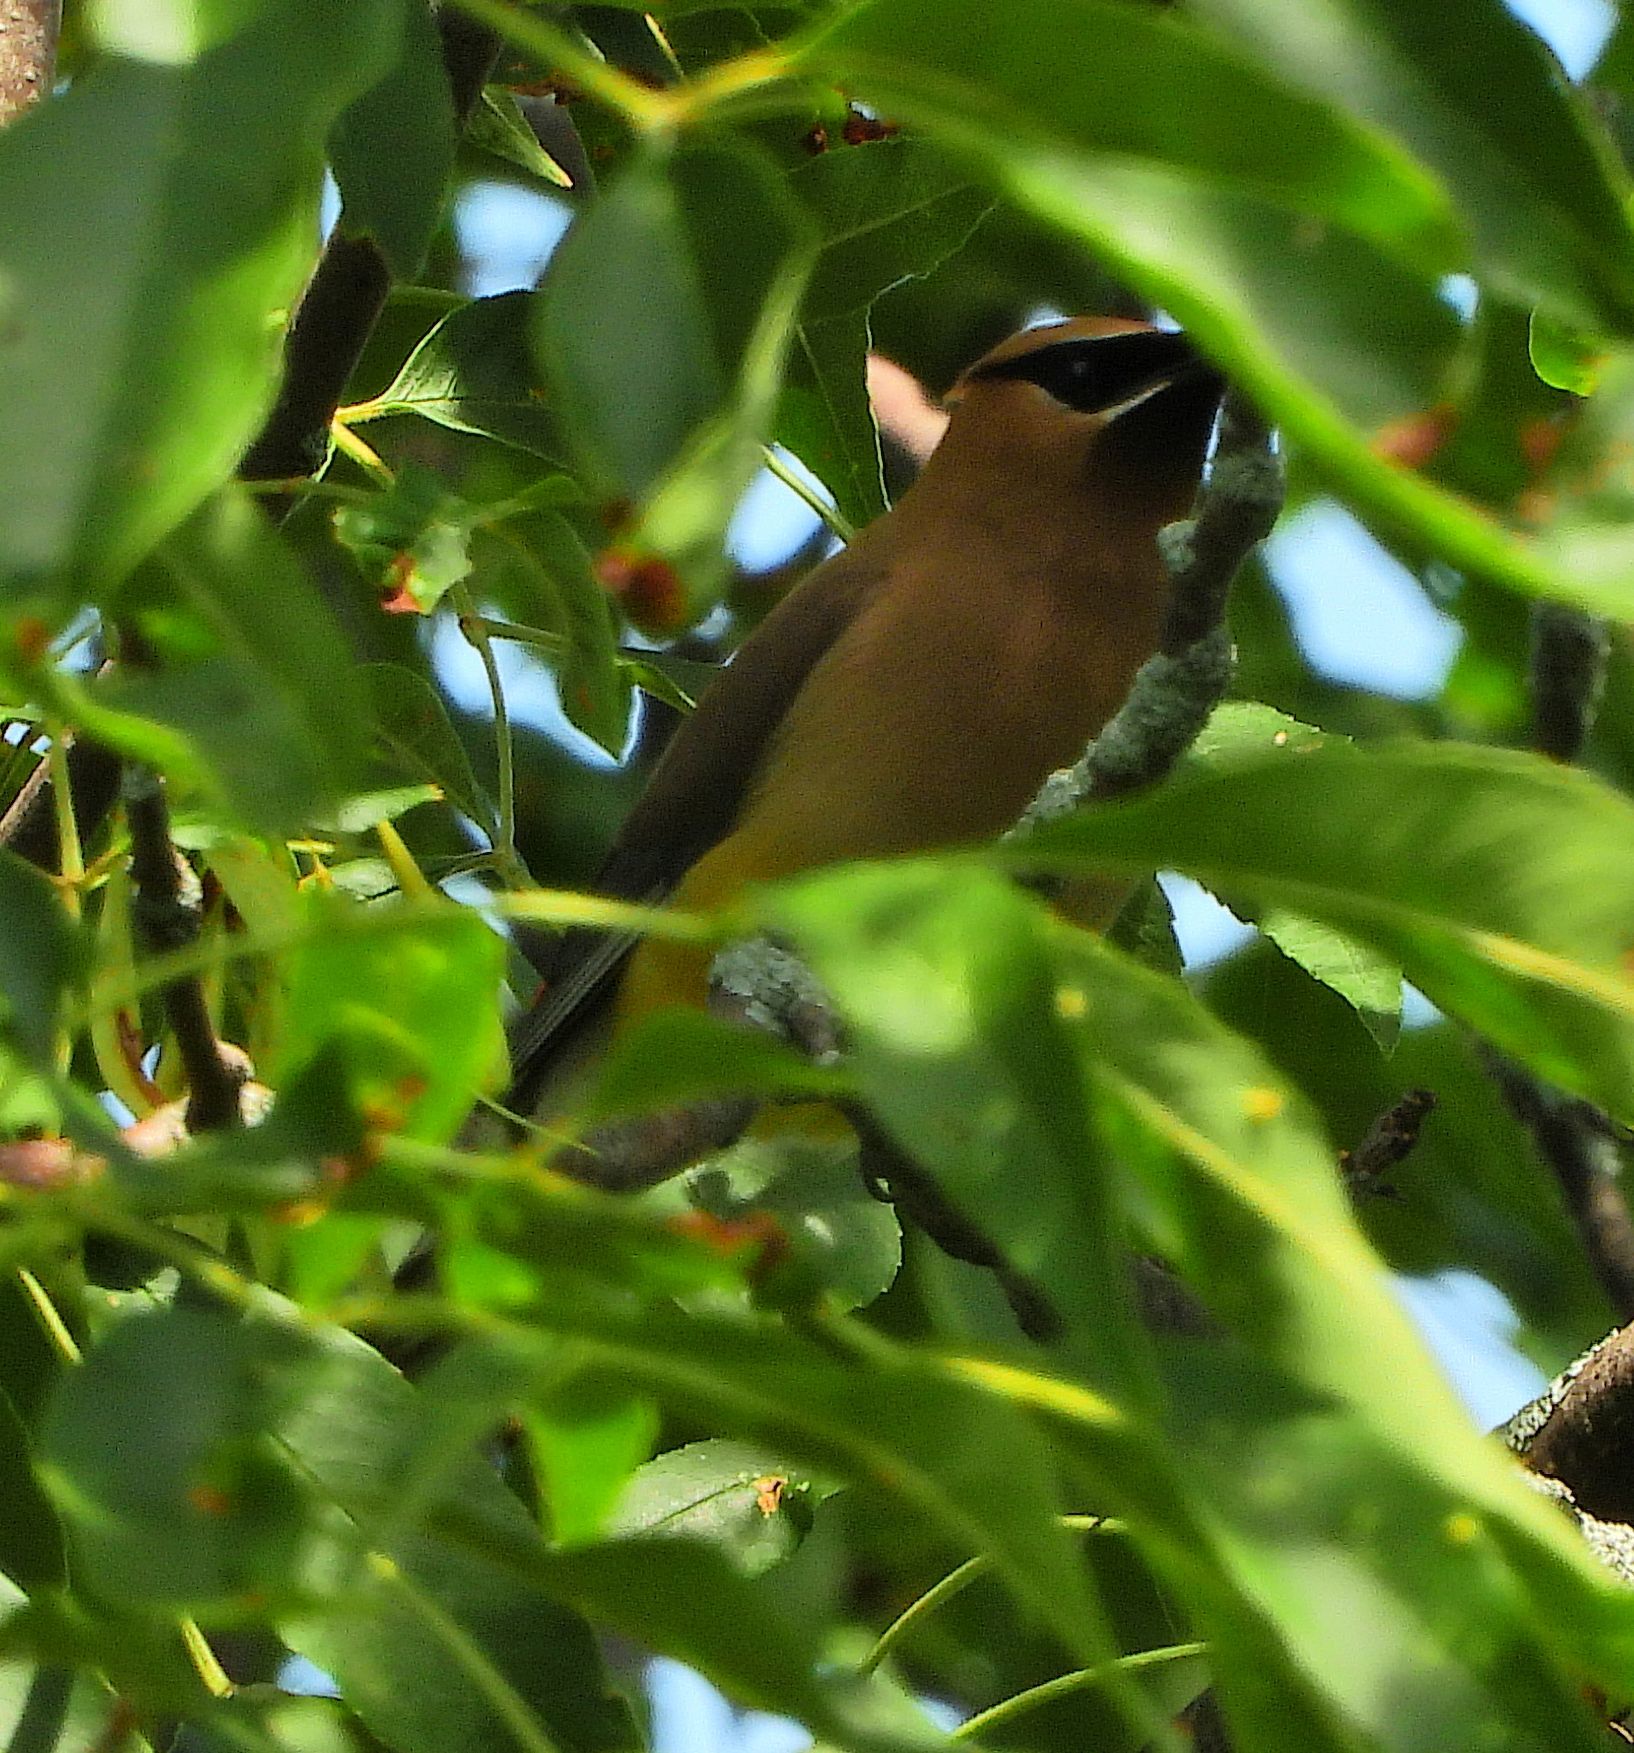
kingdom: Animalia
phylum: Chordata
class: Aves
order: Passeriformes
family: Bombycillidae
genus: Bombycilla
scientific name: Bombycilla cedrorum
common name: Cedar waxwing
